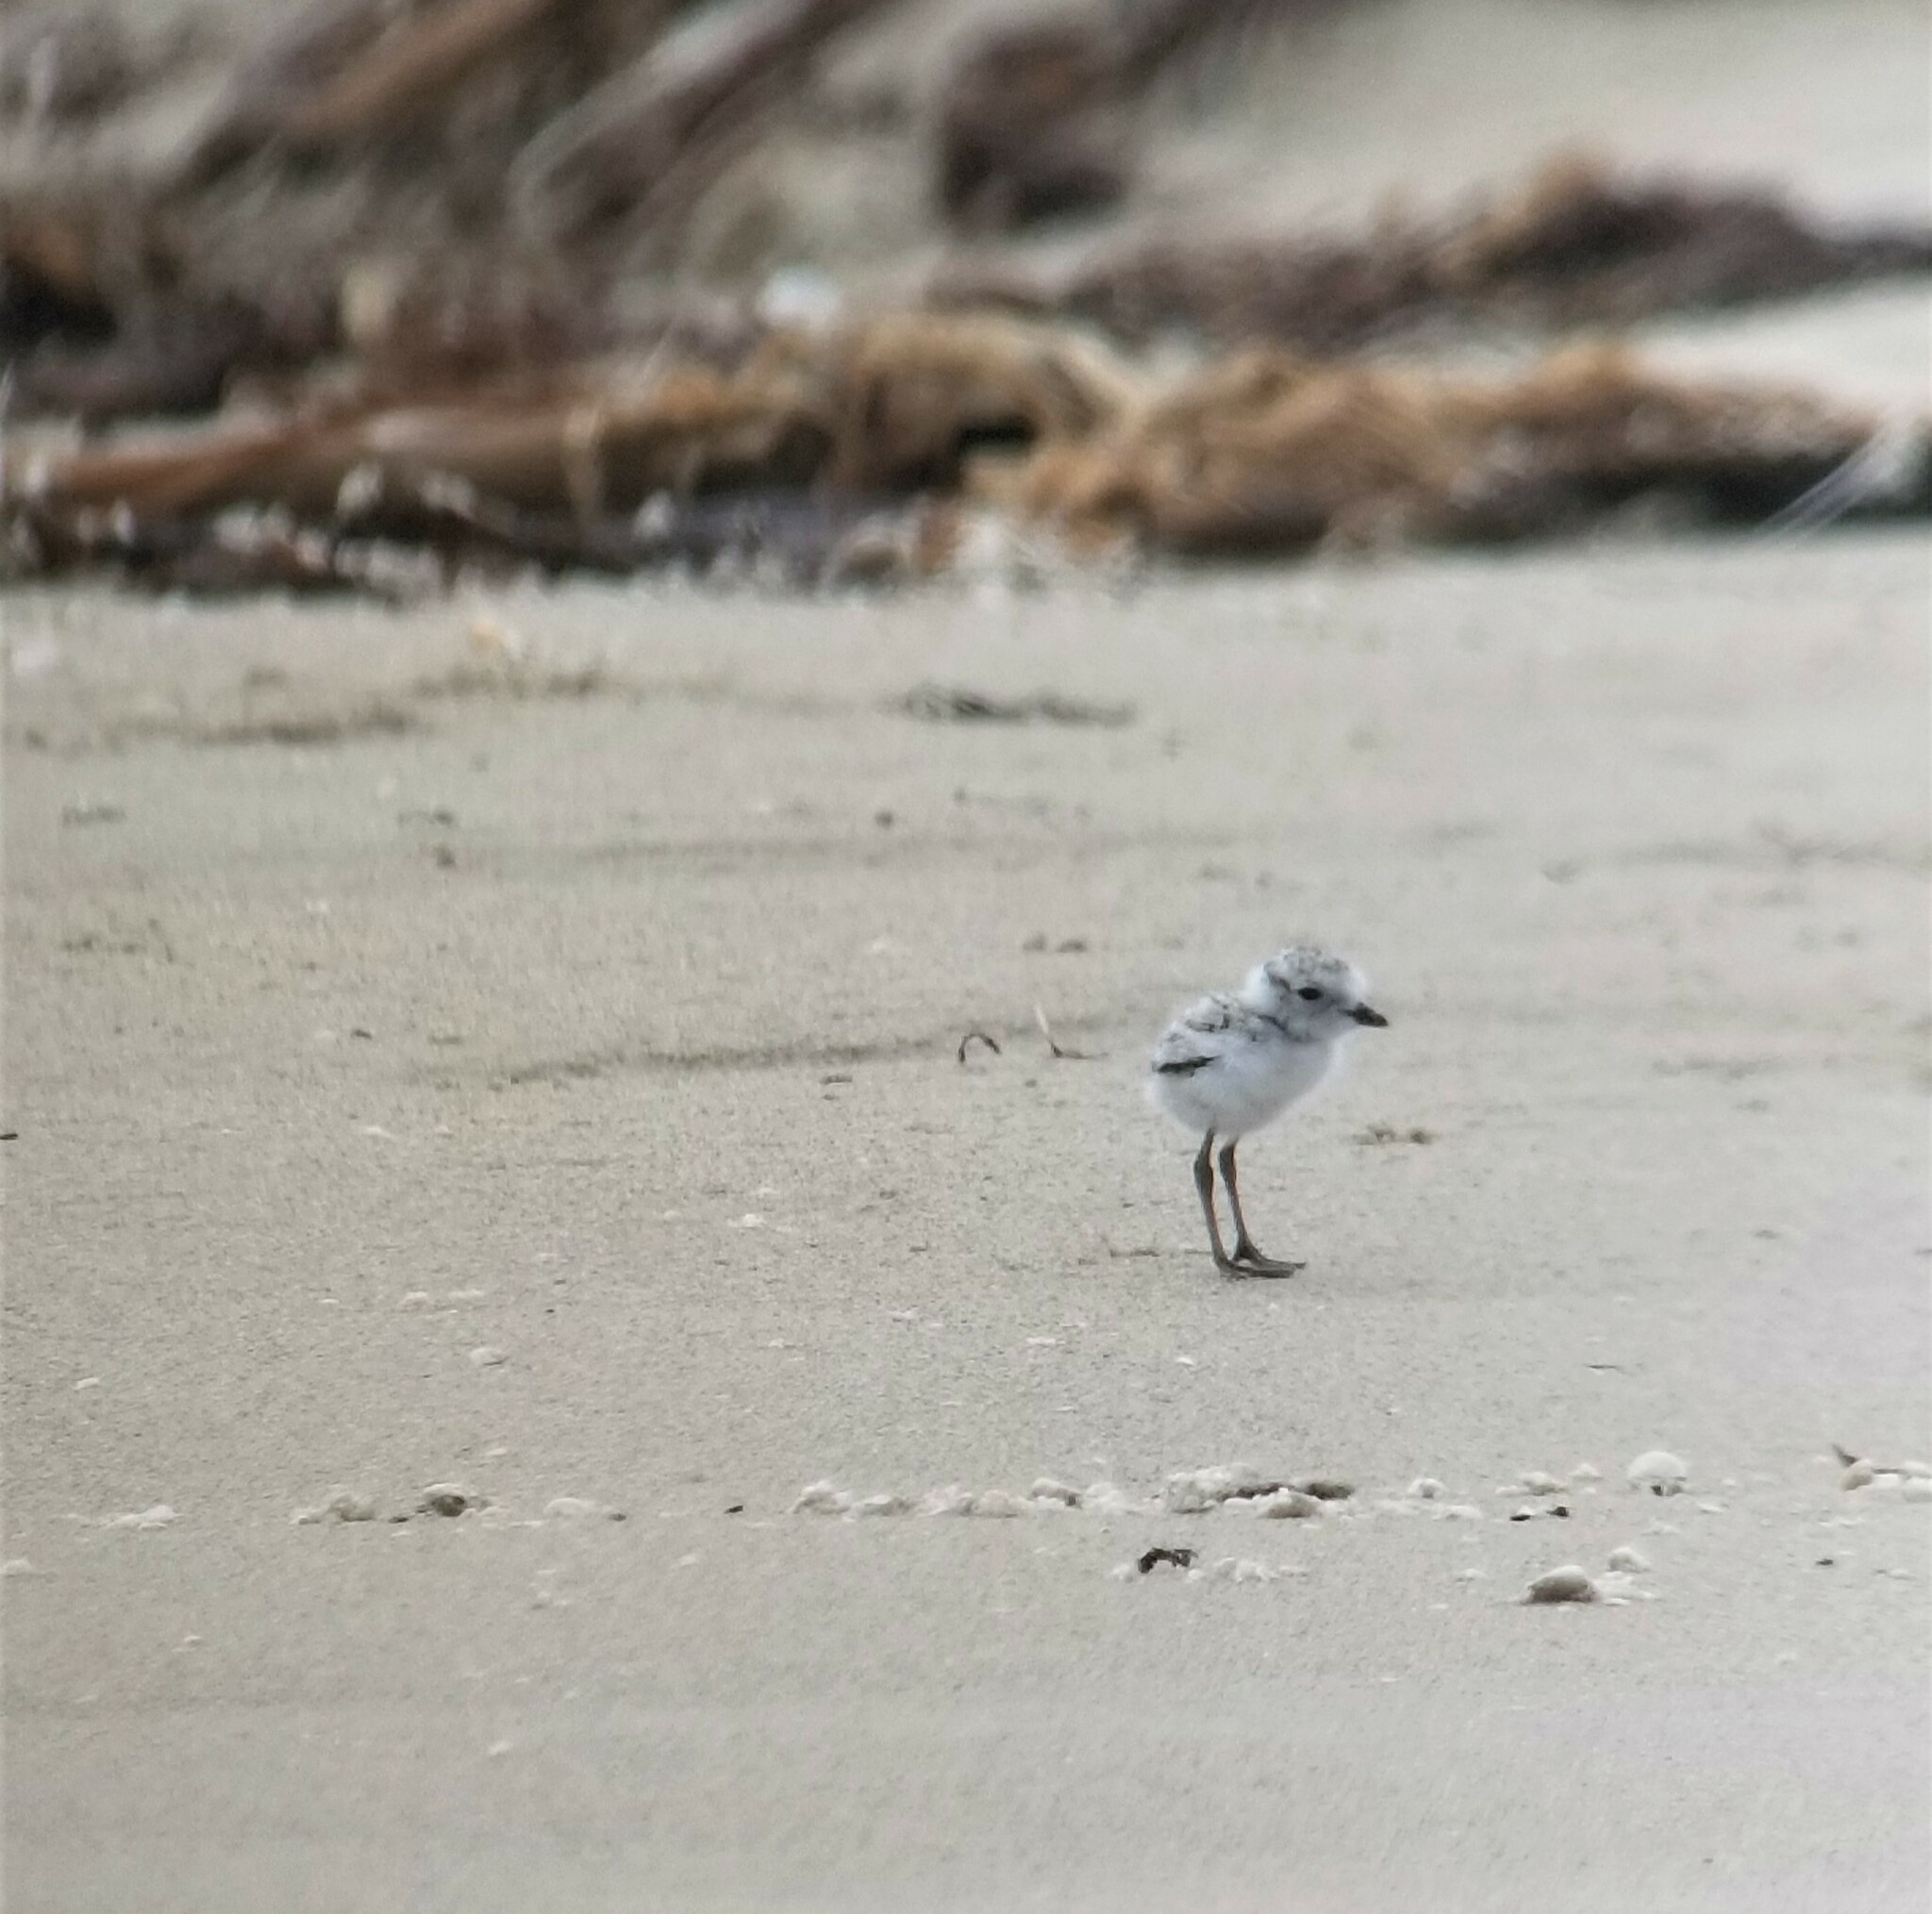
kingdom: Animalia
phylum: Chordata
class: Aves
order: Charadriiformes
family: Charadriidae
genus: Anarhynchus
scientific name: Anarhynchus
